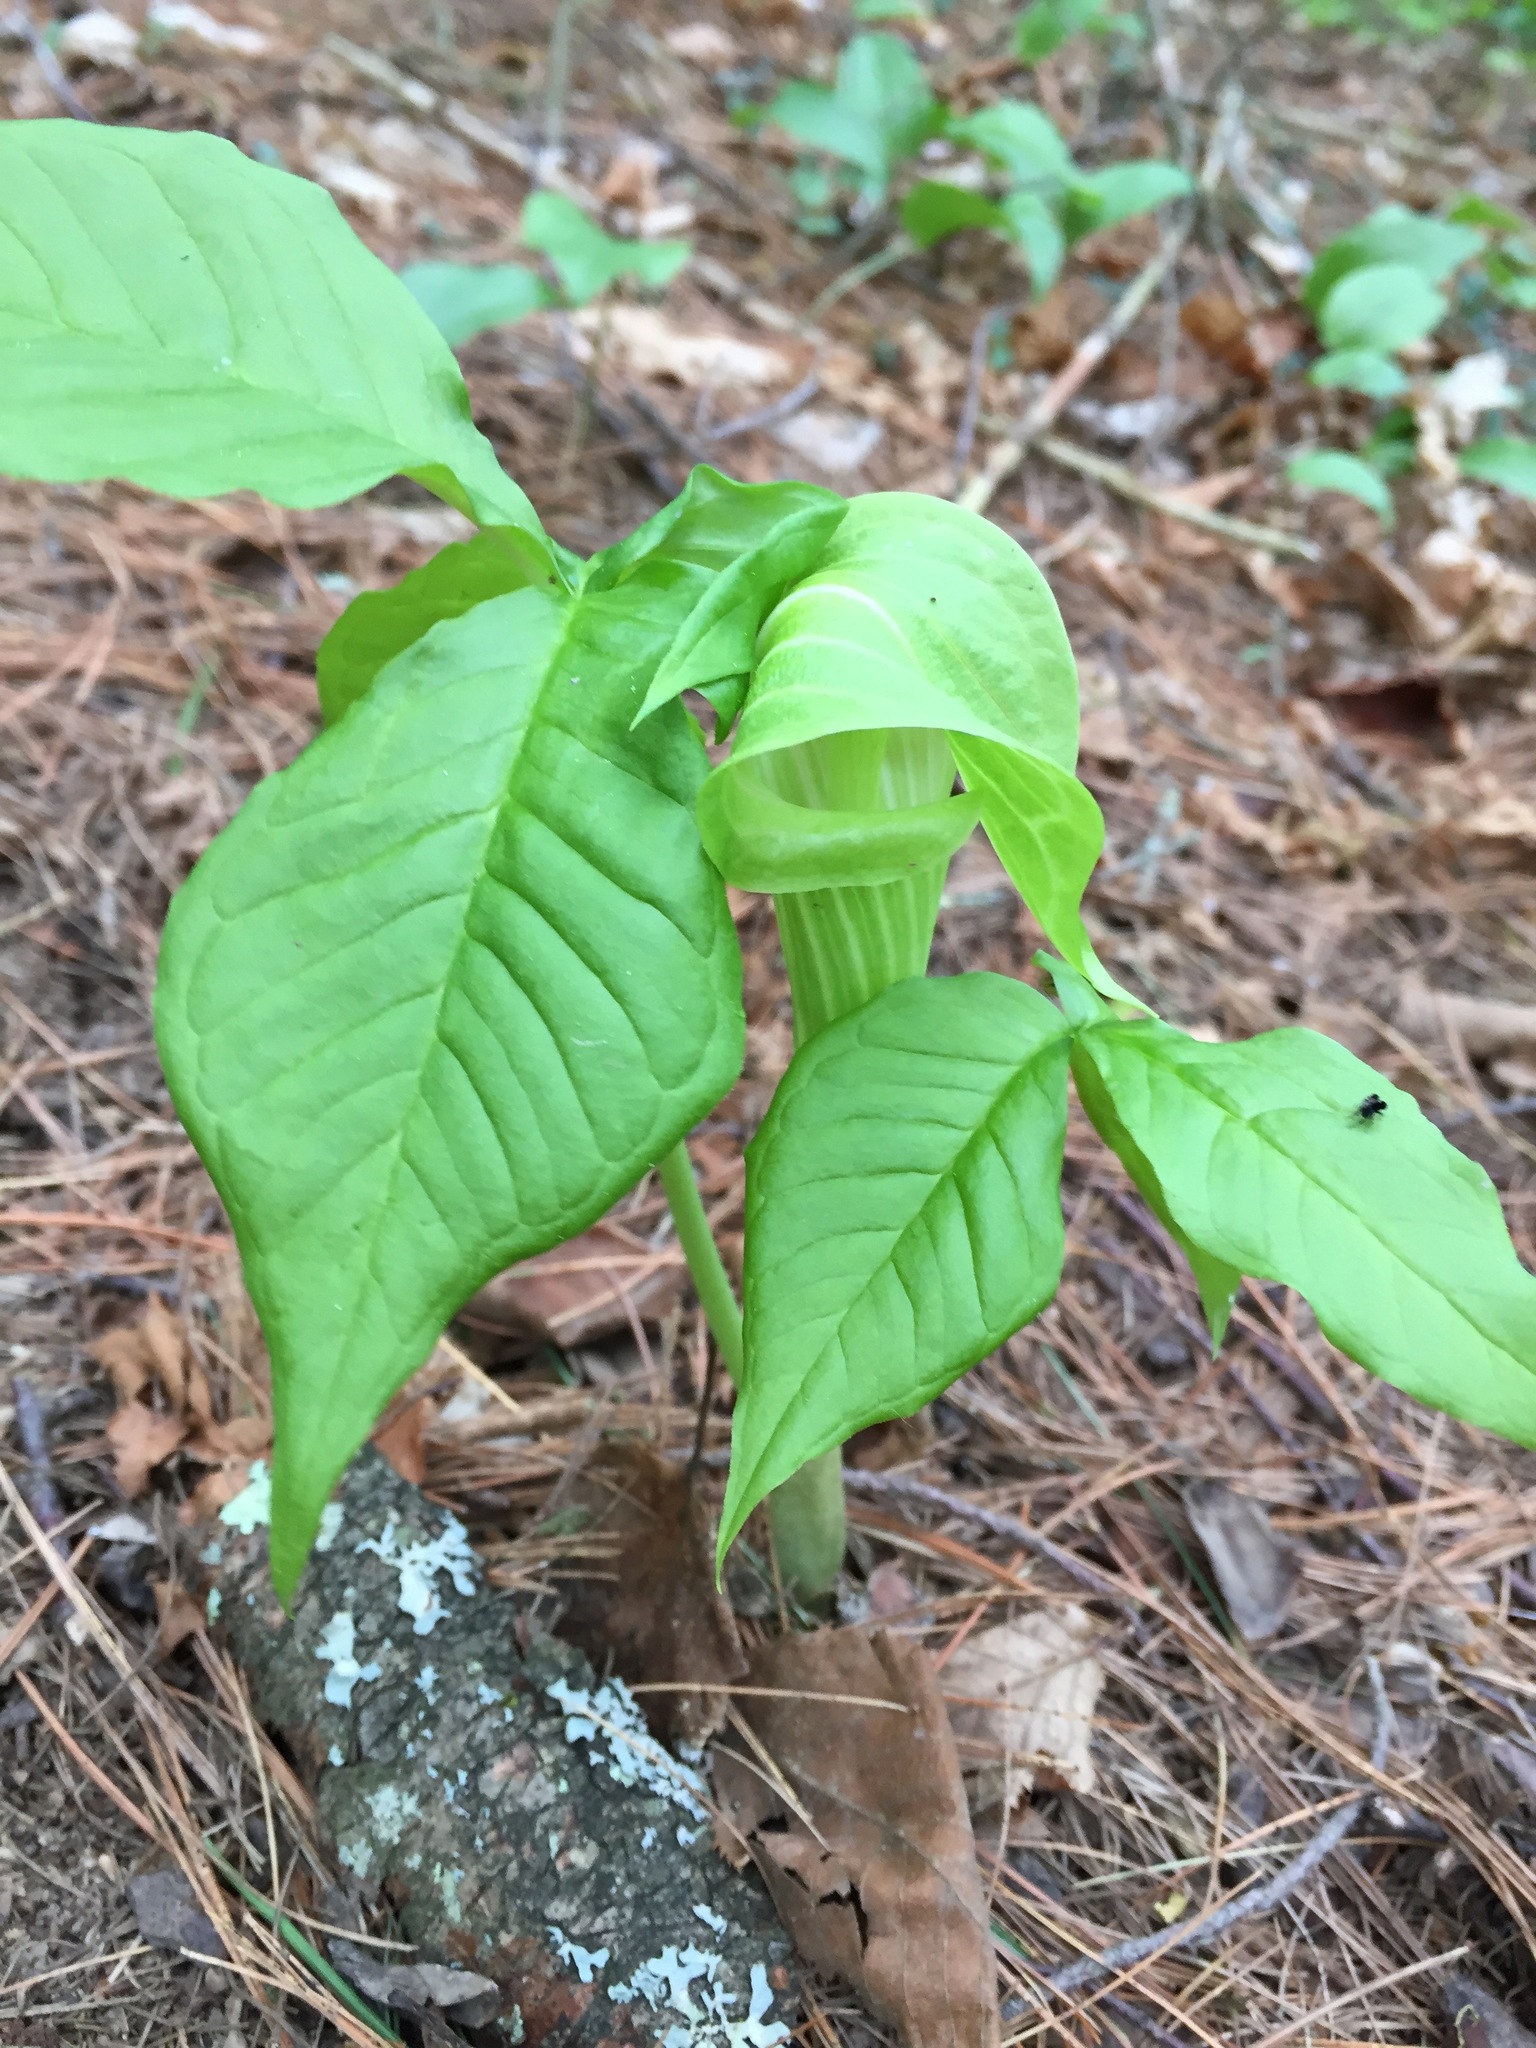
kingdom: Plantae
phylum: Tracheophyta
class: Liliopsida
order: Alismatales
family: Araceae
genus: Arisaema
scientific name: Arisaema triphyllum
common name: Jack-in-the-pulpit
